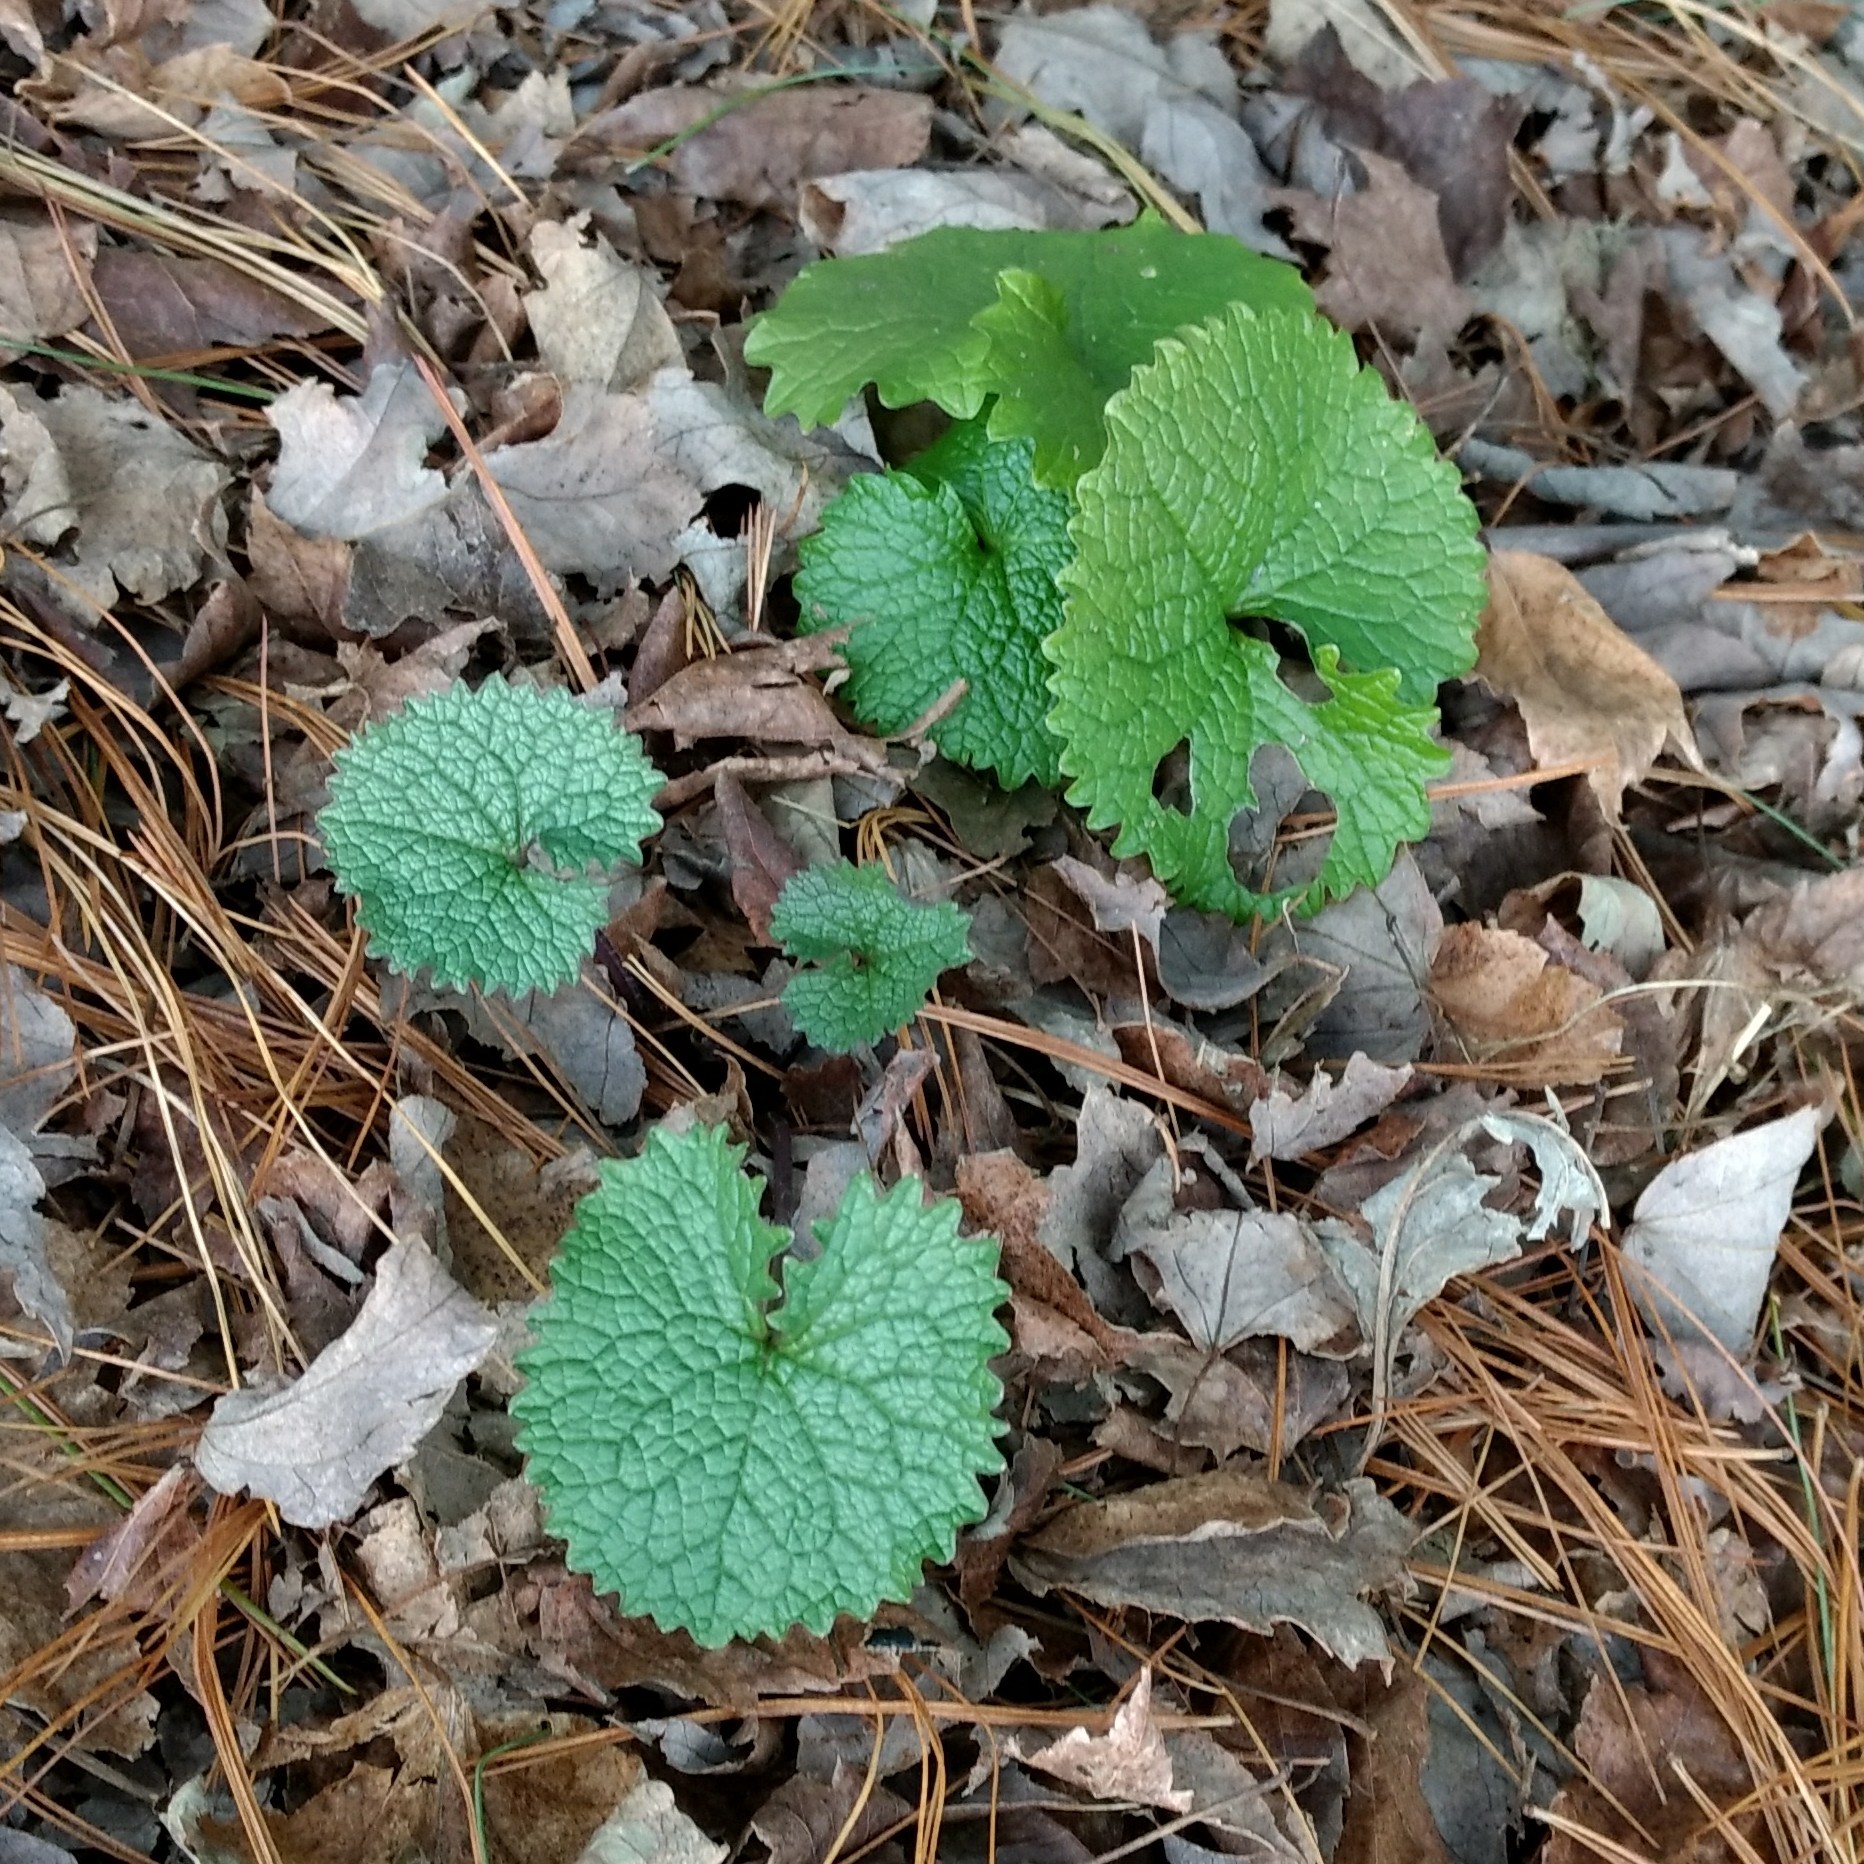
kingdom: Plantae
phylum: Tracheophyta
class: Magnoliopsida
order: Brassicales
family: Brassicaceae
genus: Alliaria
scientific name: Alliaria petiolata
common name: Garlic mustard
